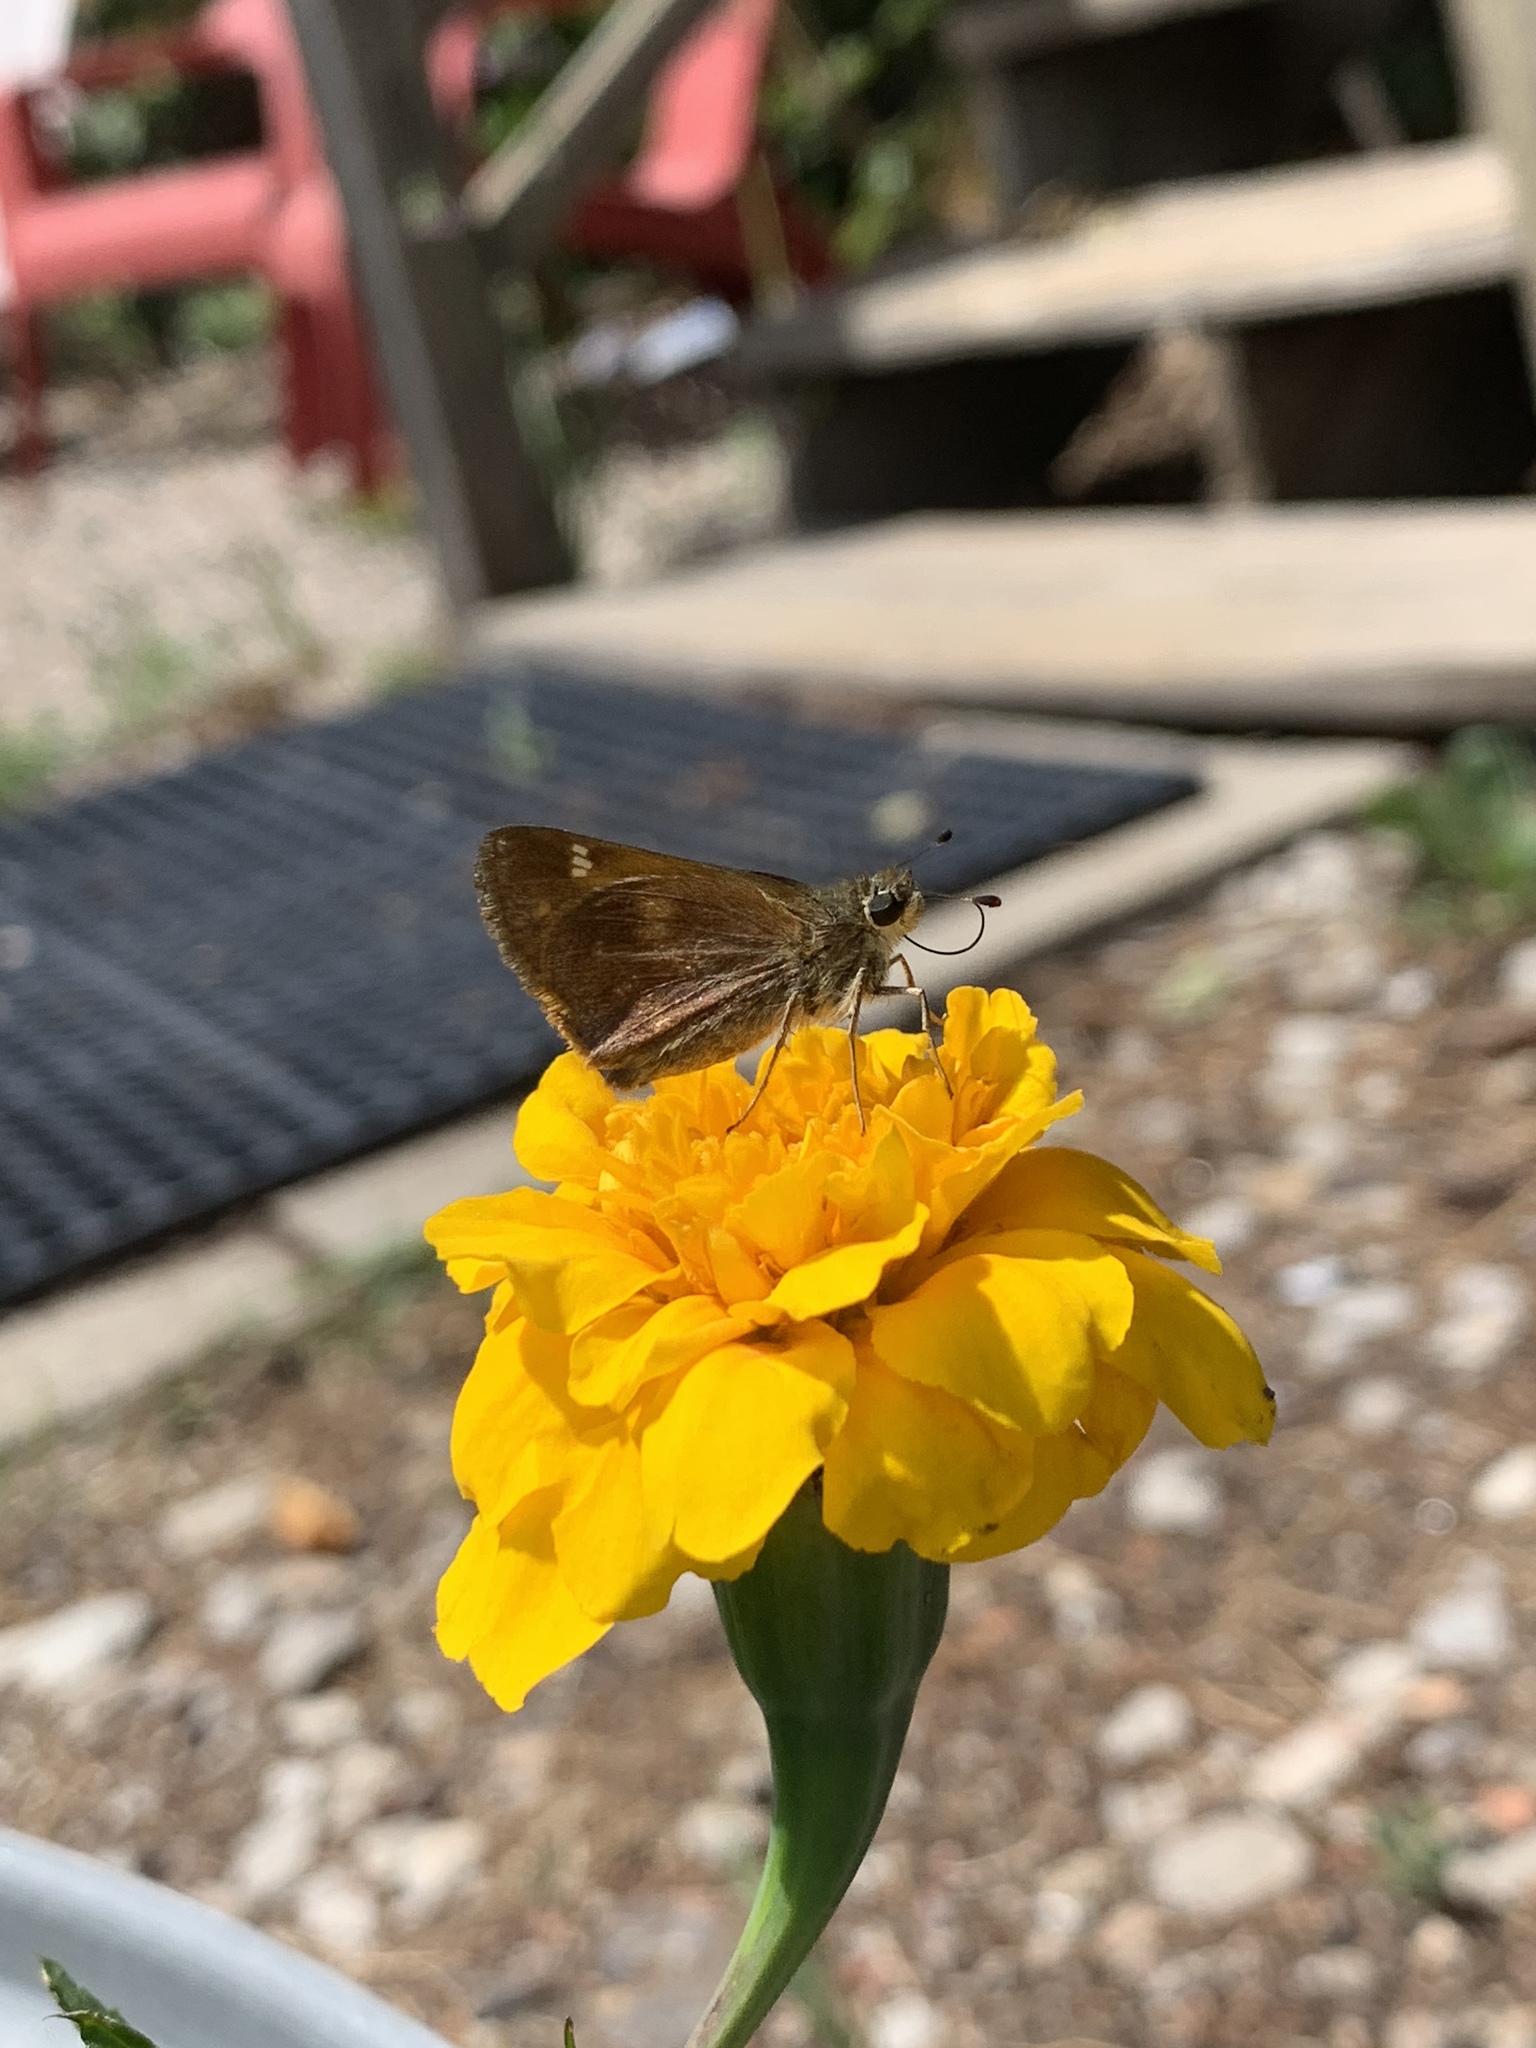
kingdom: Animalia
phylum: Arthropoda
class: Insecta
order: Lepidoptera
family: Hesperiidae
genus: Lon
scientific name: Lon taxiles
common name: Taxiles skipper
